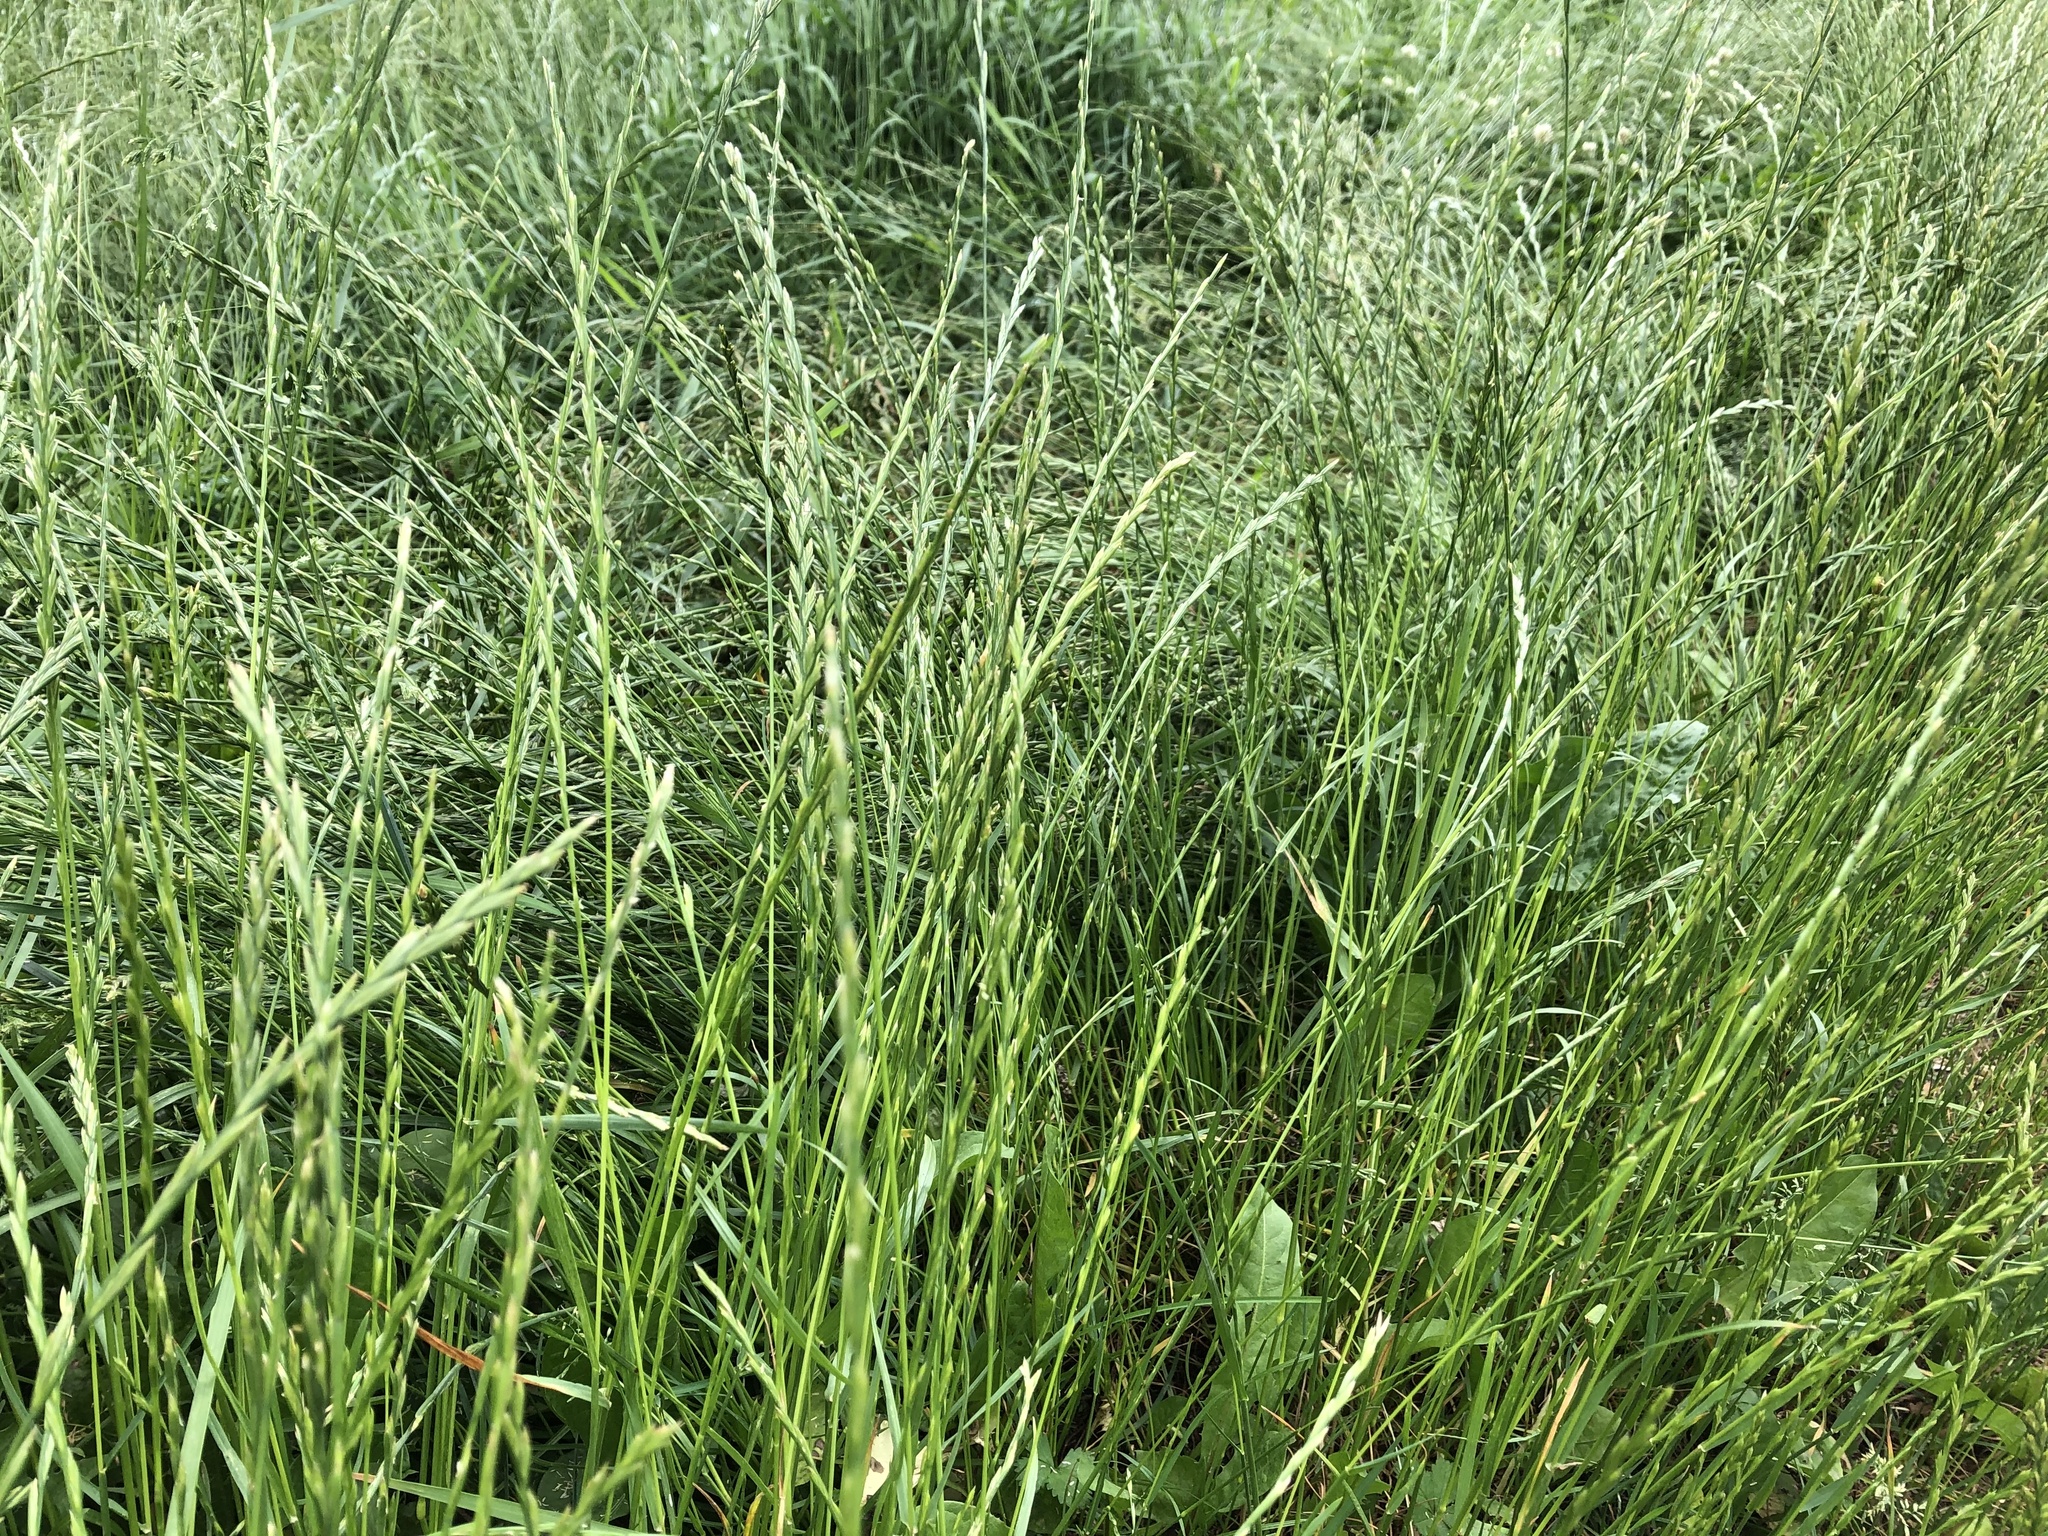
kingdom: Plantae
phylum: Tracheophyta
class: Liliopsida
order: Poales
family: Poaceae
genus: Lolium
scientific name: Lolium perenne
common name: Perennial ryegrass
